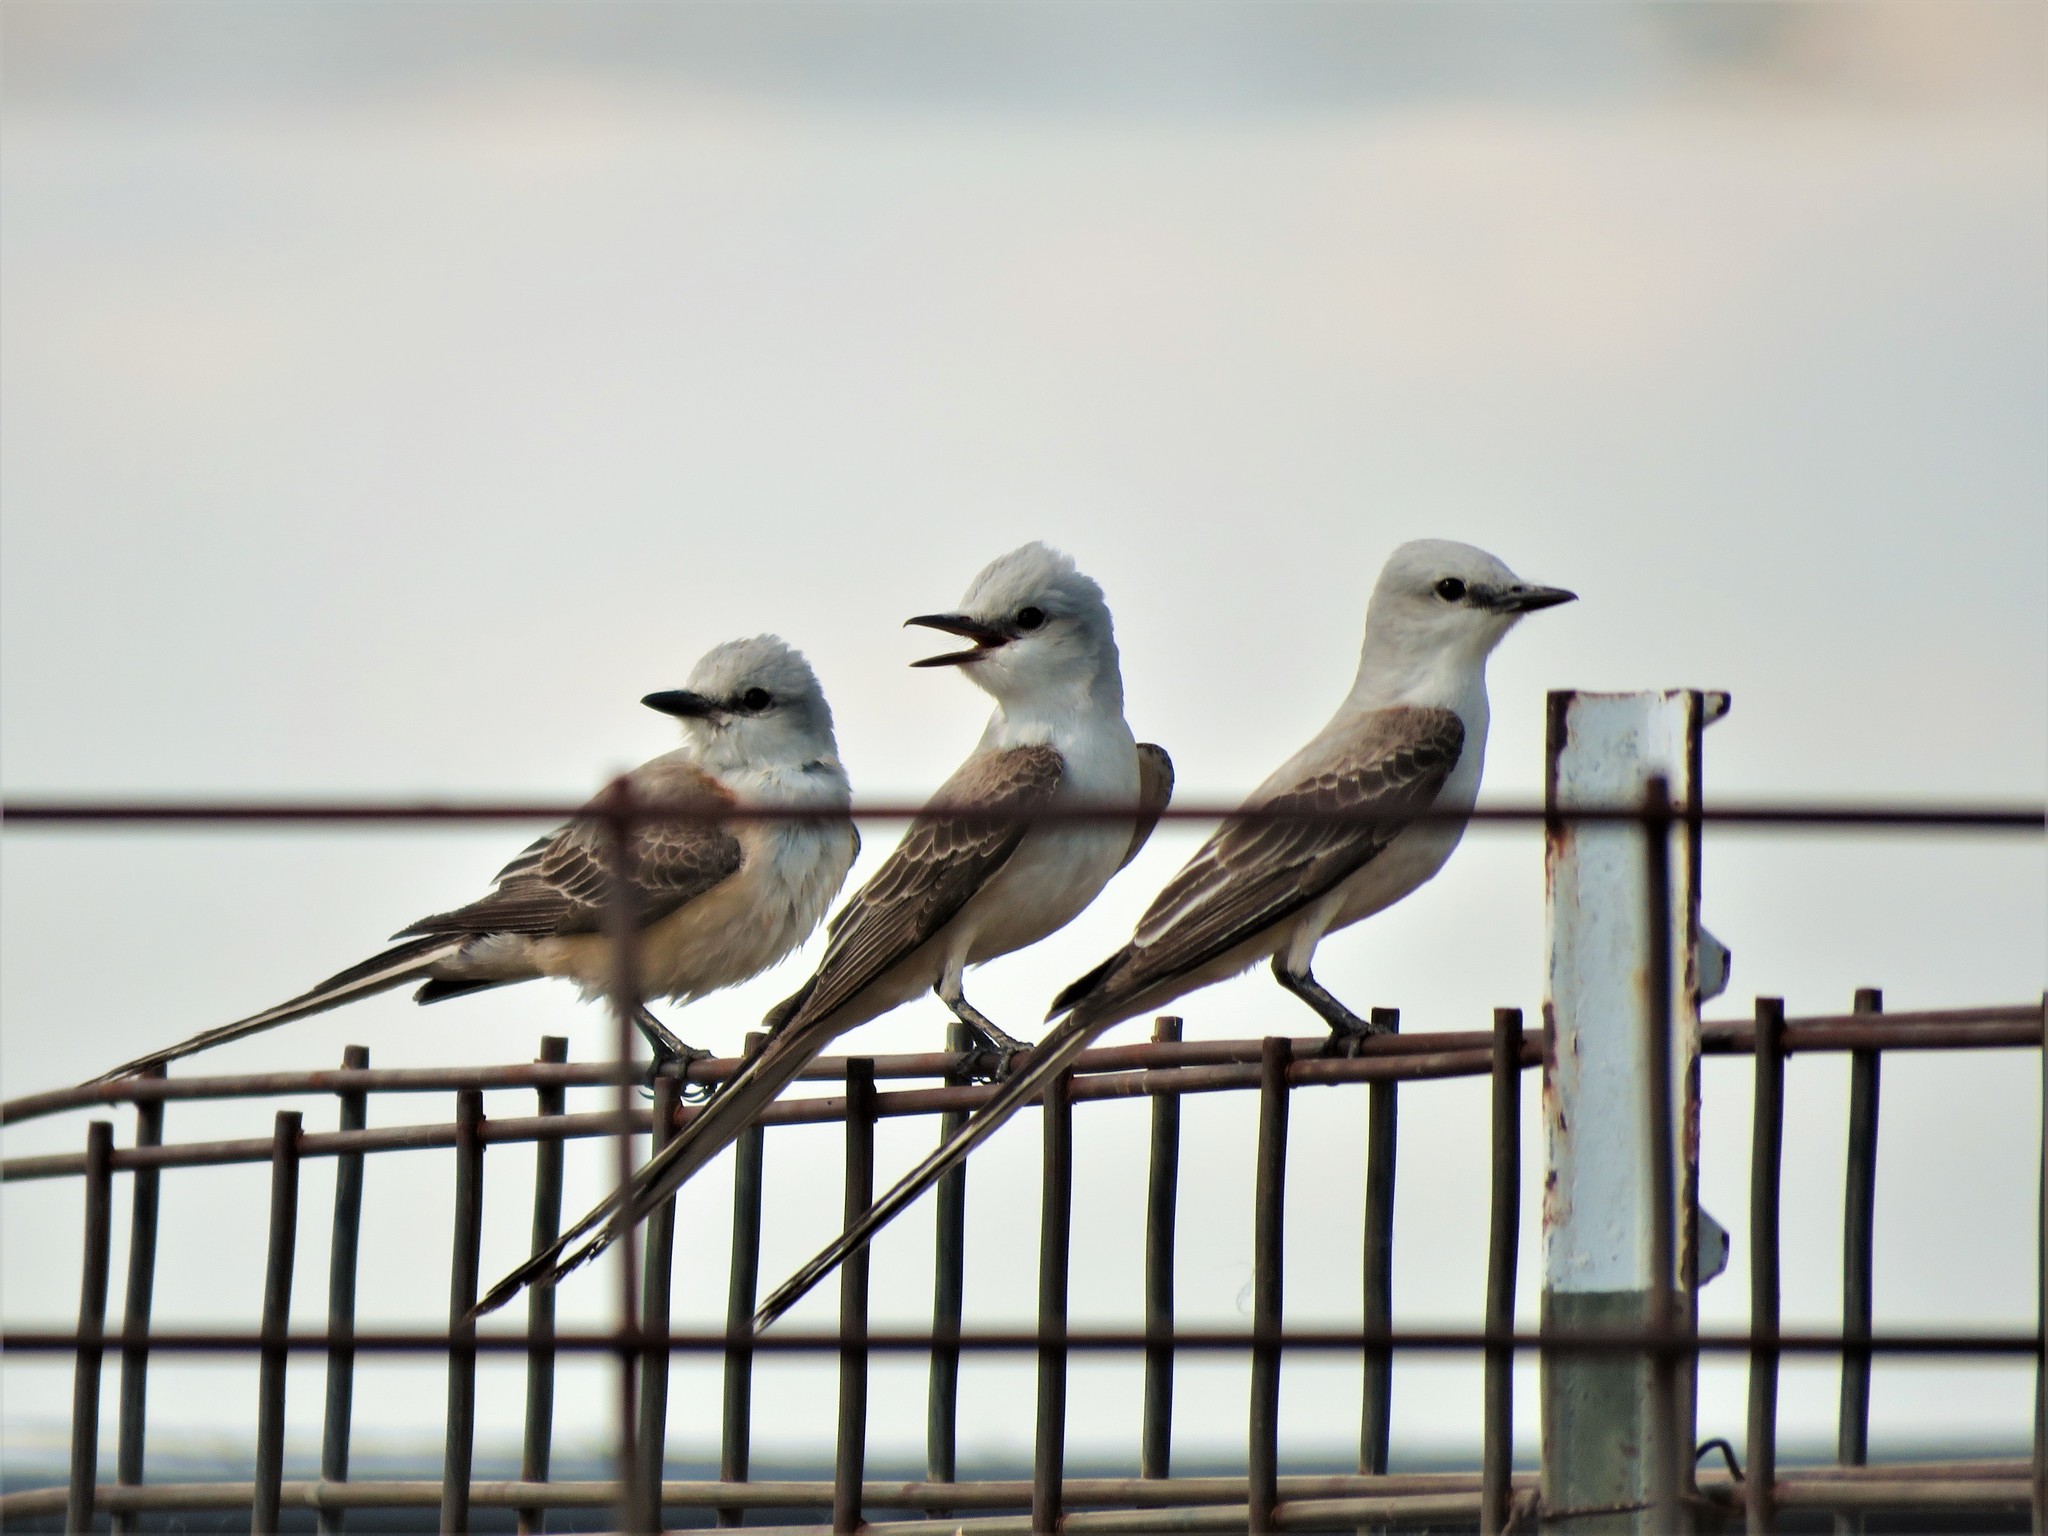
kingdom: Animalia
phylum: Chordata
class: Aves
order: Passeriformes
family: Tyrannidae
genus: Tyrannus
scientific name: Tyrannus forficatus
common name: Scissor-tailed flycatcher
